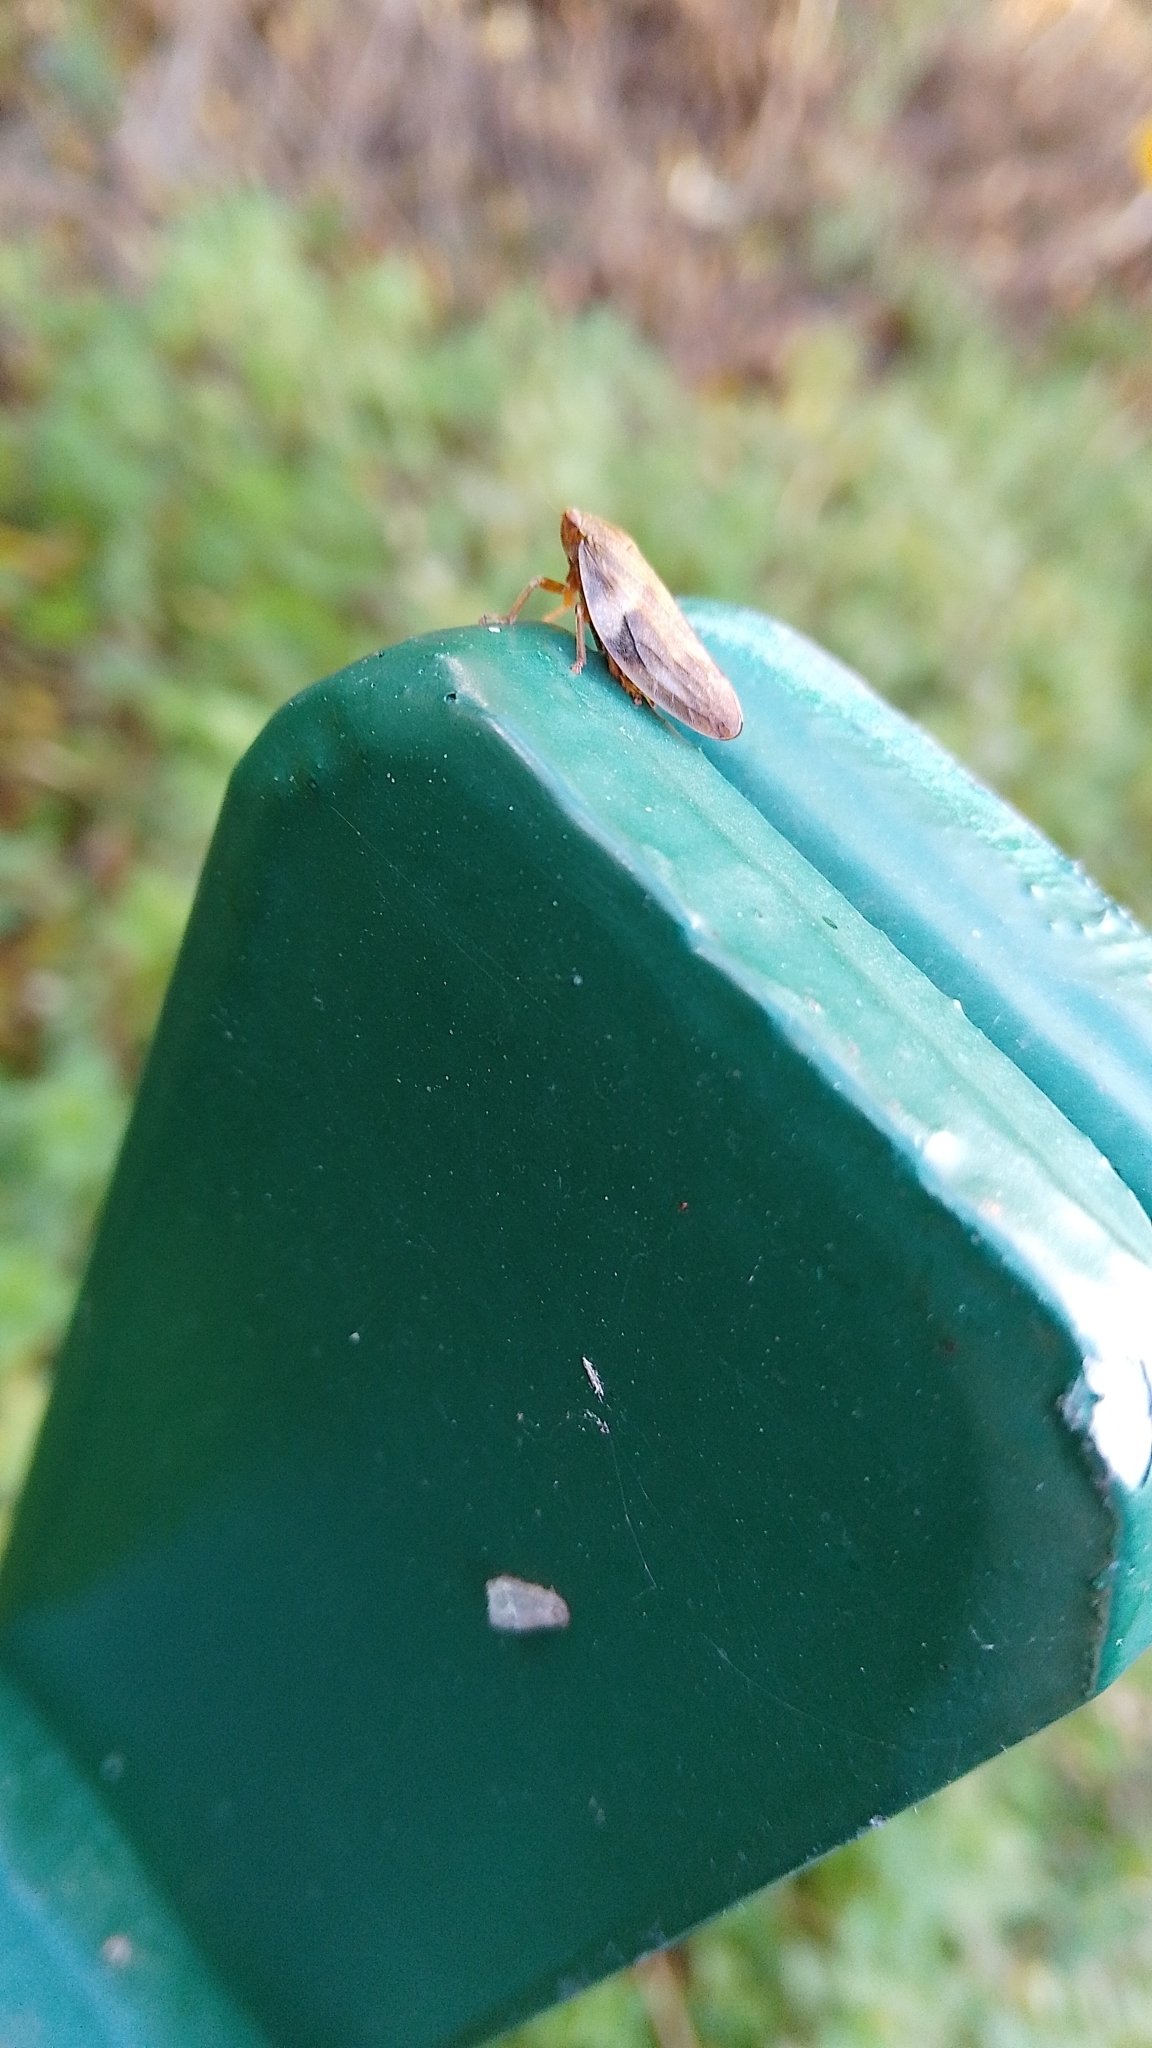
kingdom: Animalia
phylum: Arthropoda
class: Insecta
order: Hemiptera
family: Aphrophoridae
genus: Aphrophora
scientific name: Aphrophora alni
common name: European alder spittlebug
